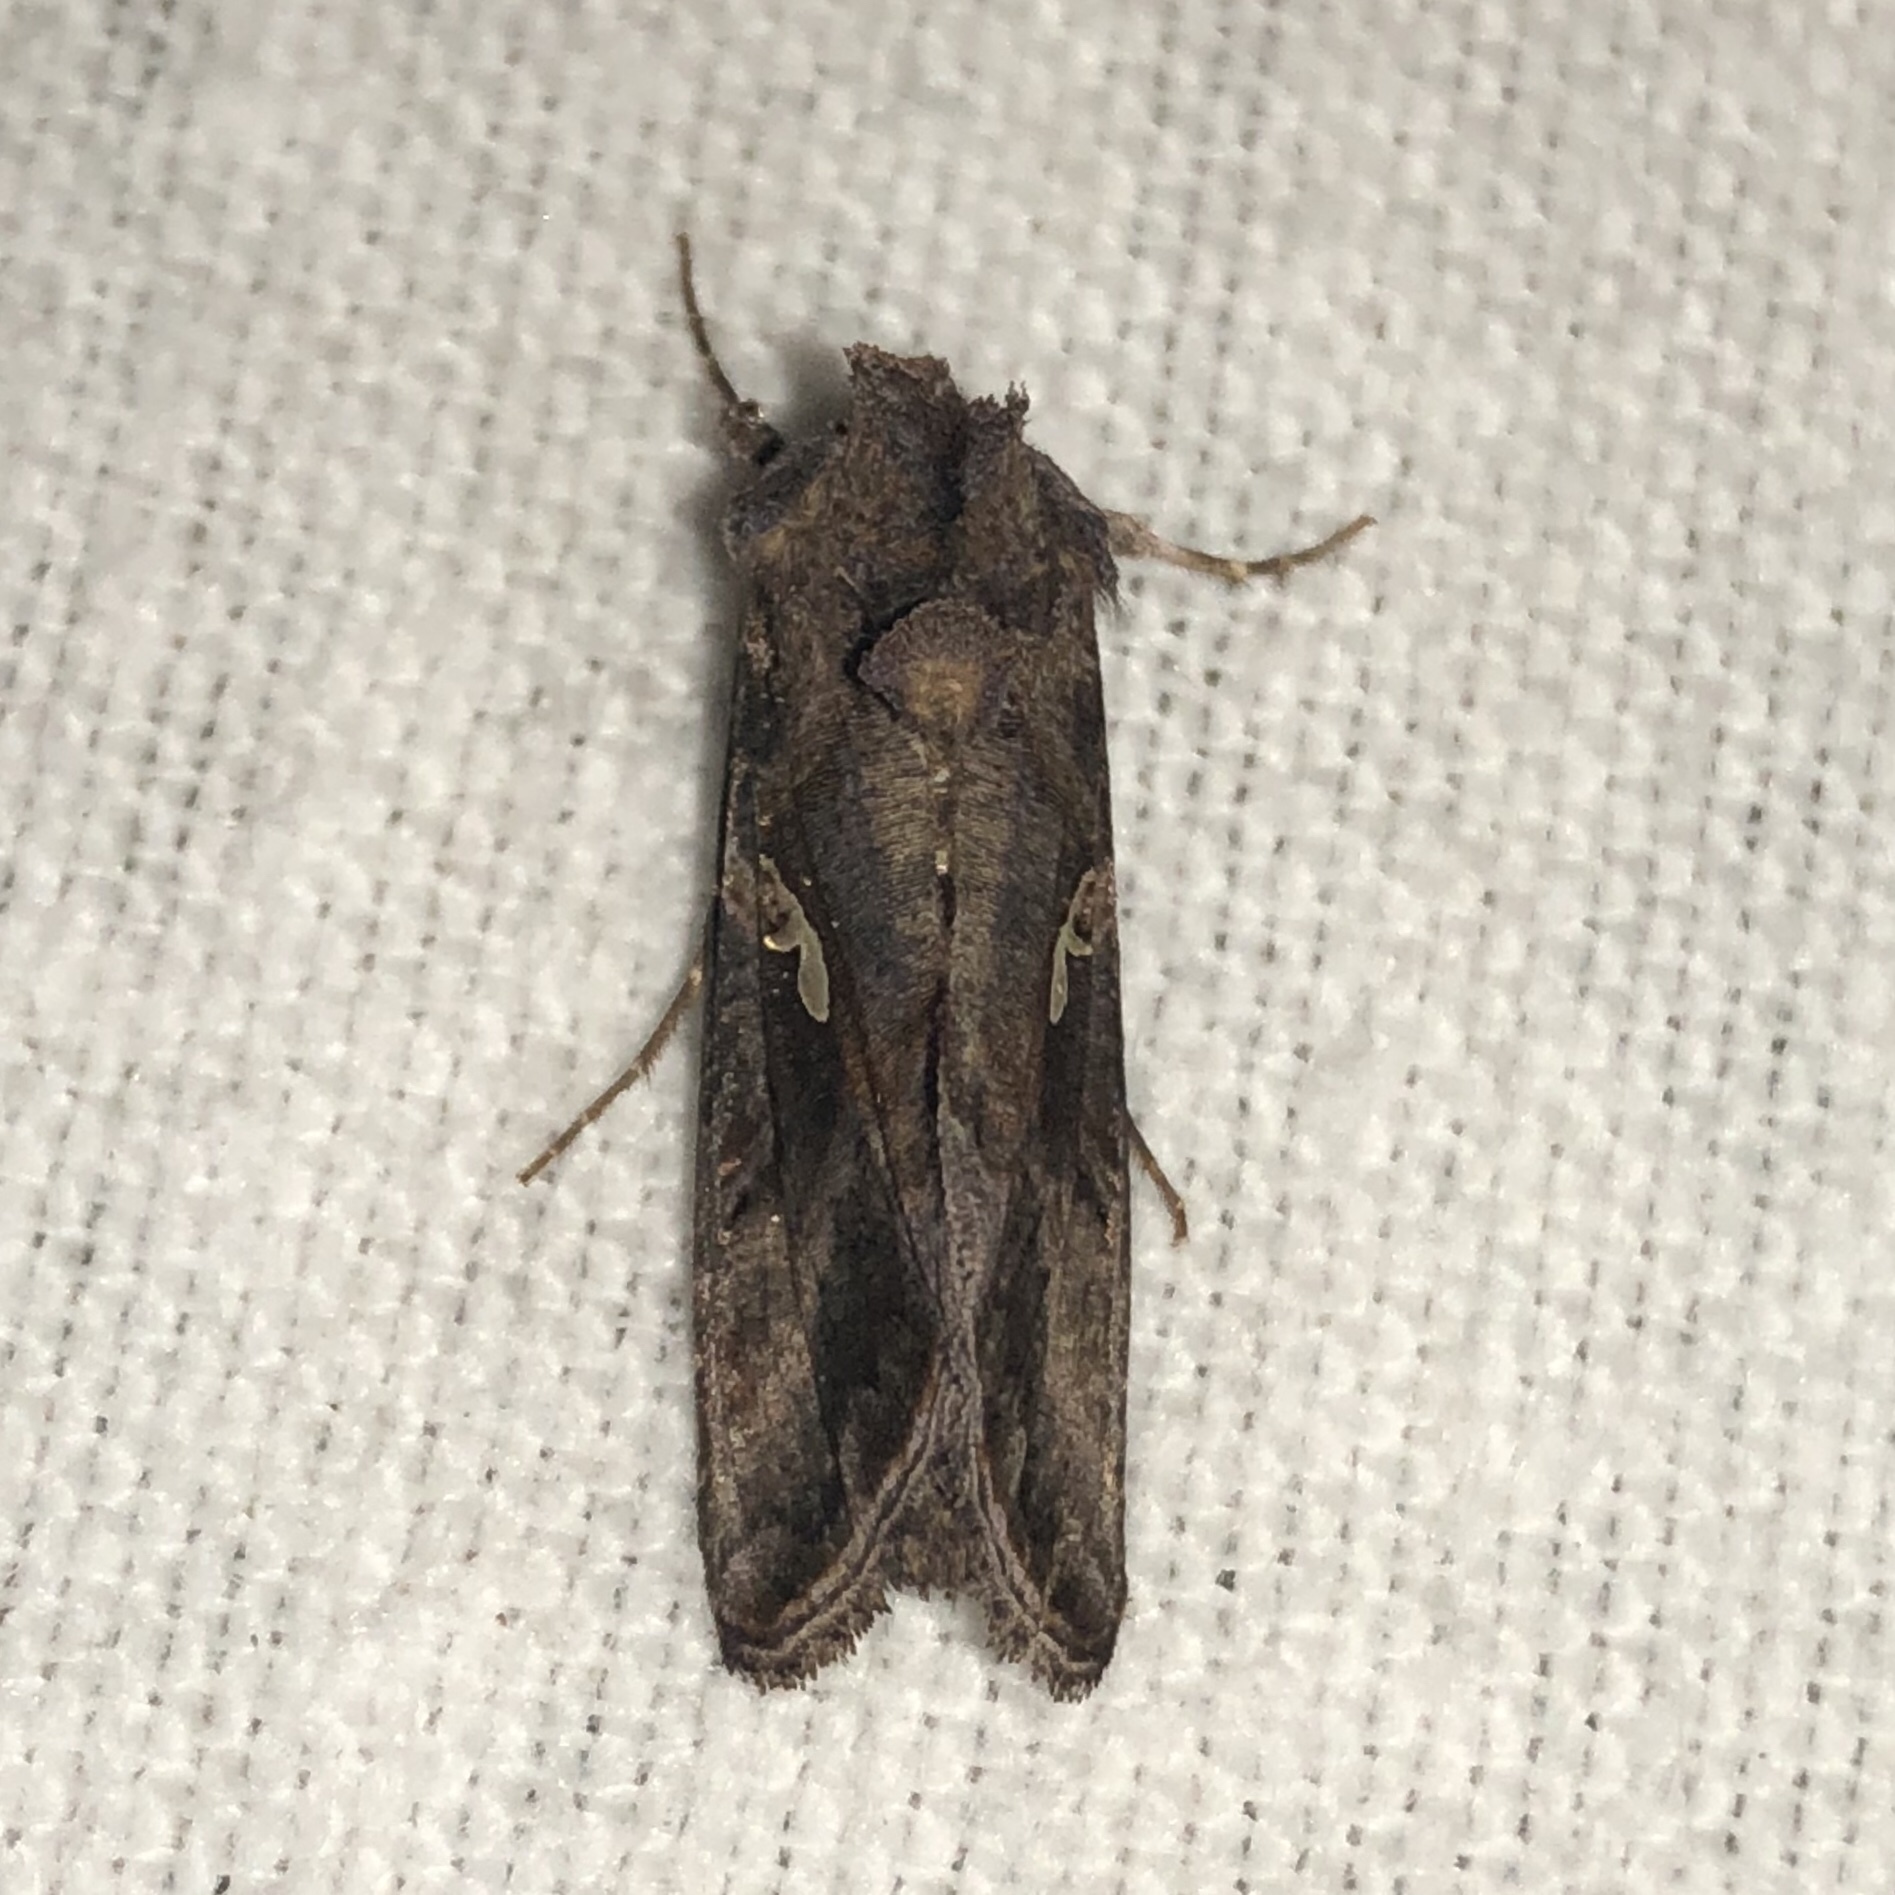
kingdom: Animalia
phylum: Arthropoda
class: Insecta
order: Lepidoptera
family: Noctuidae
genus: Autographa
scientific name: Autographa precationis
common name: Common looper moth
